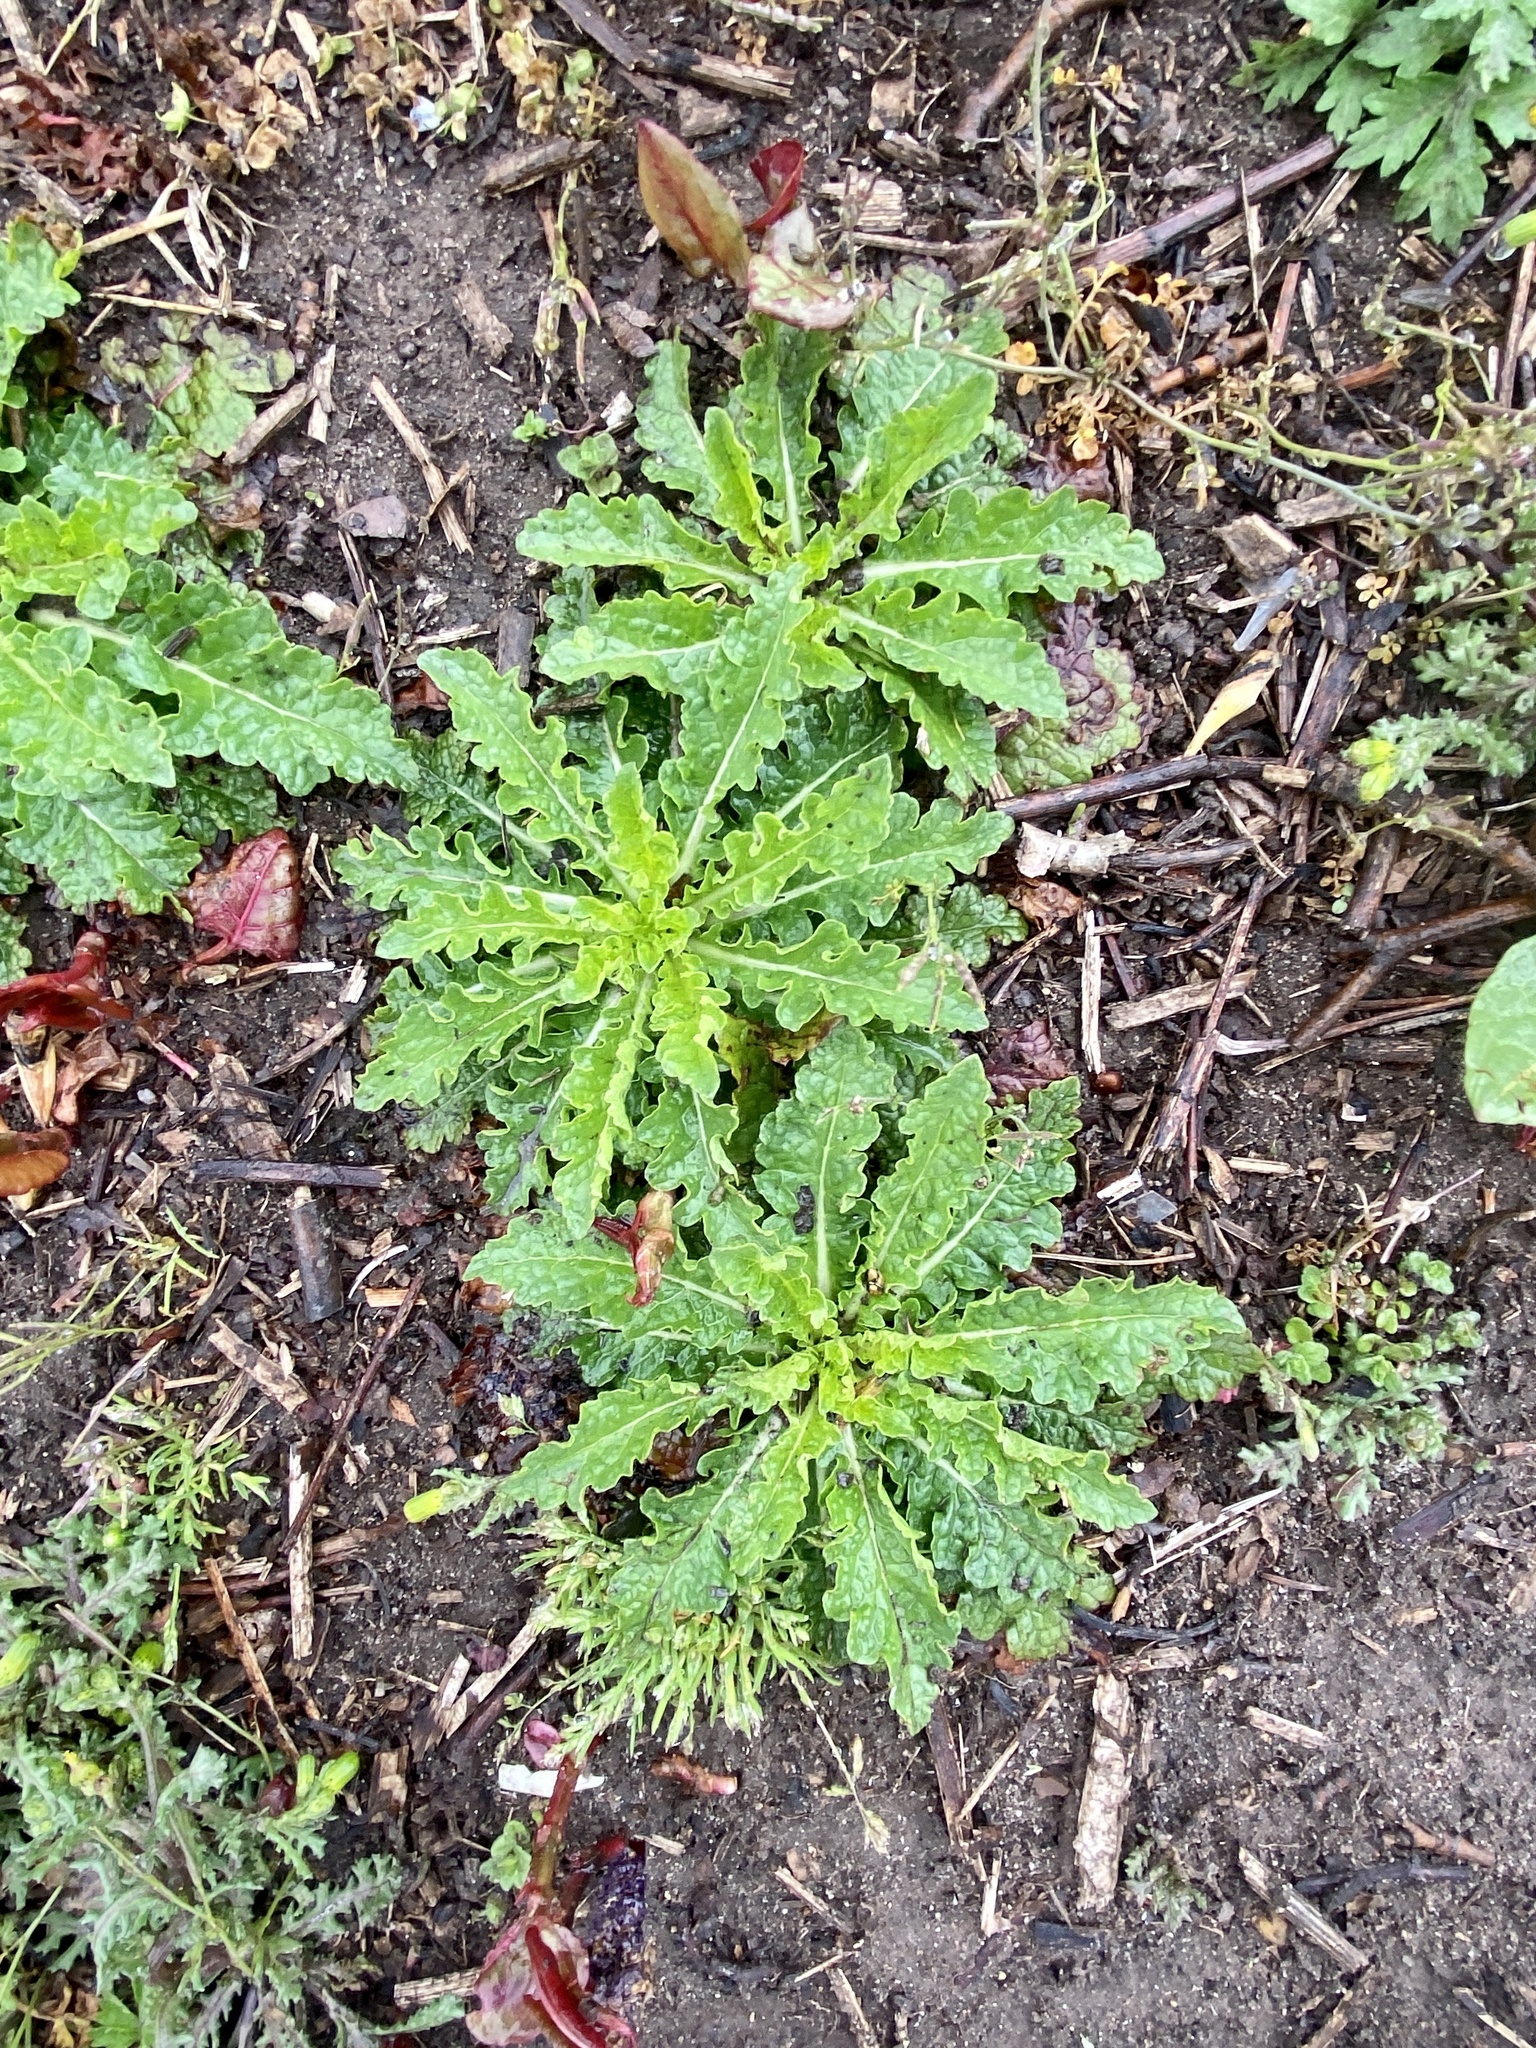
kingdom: Plantae
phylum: Tracheophyta
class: Magnoliopsida
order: Lamiales
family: Scrophulariaceae
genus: Verbascum
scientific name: Verbascum blattaria
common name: Moth mullein
